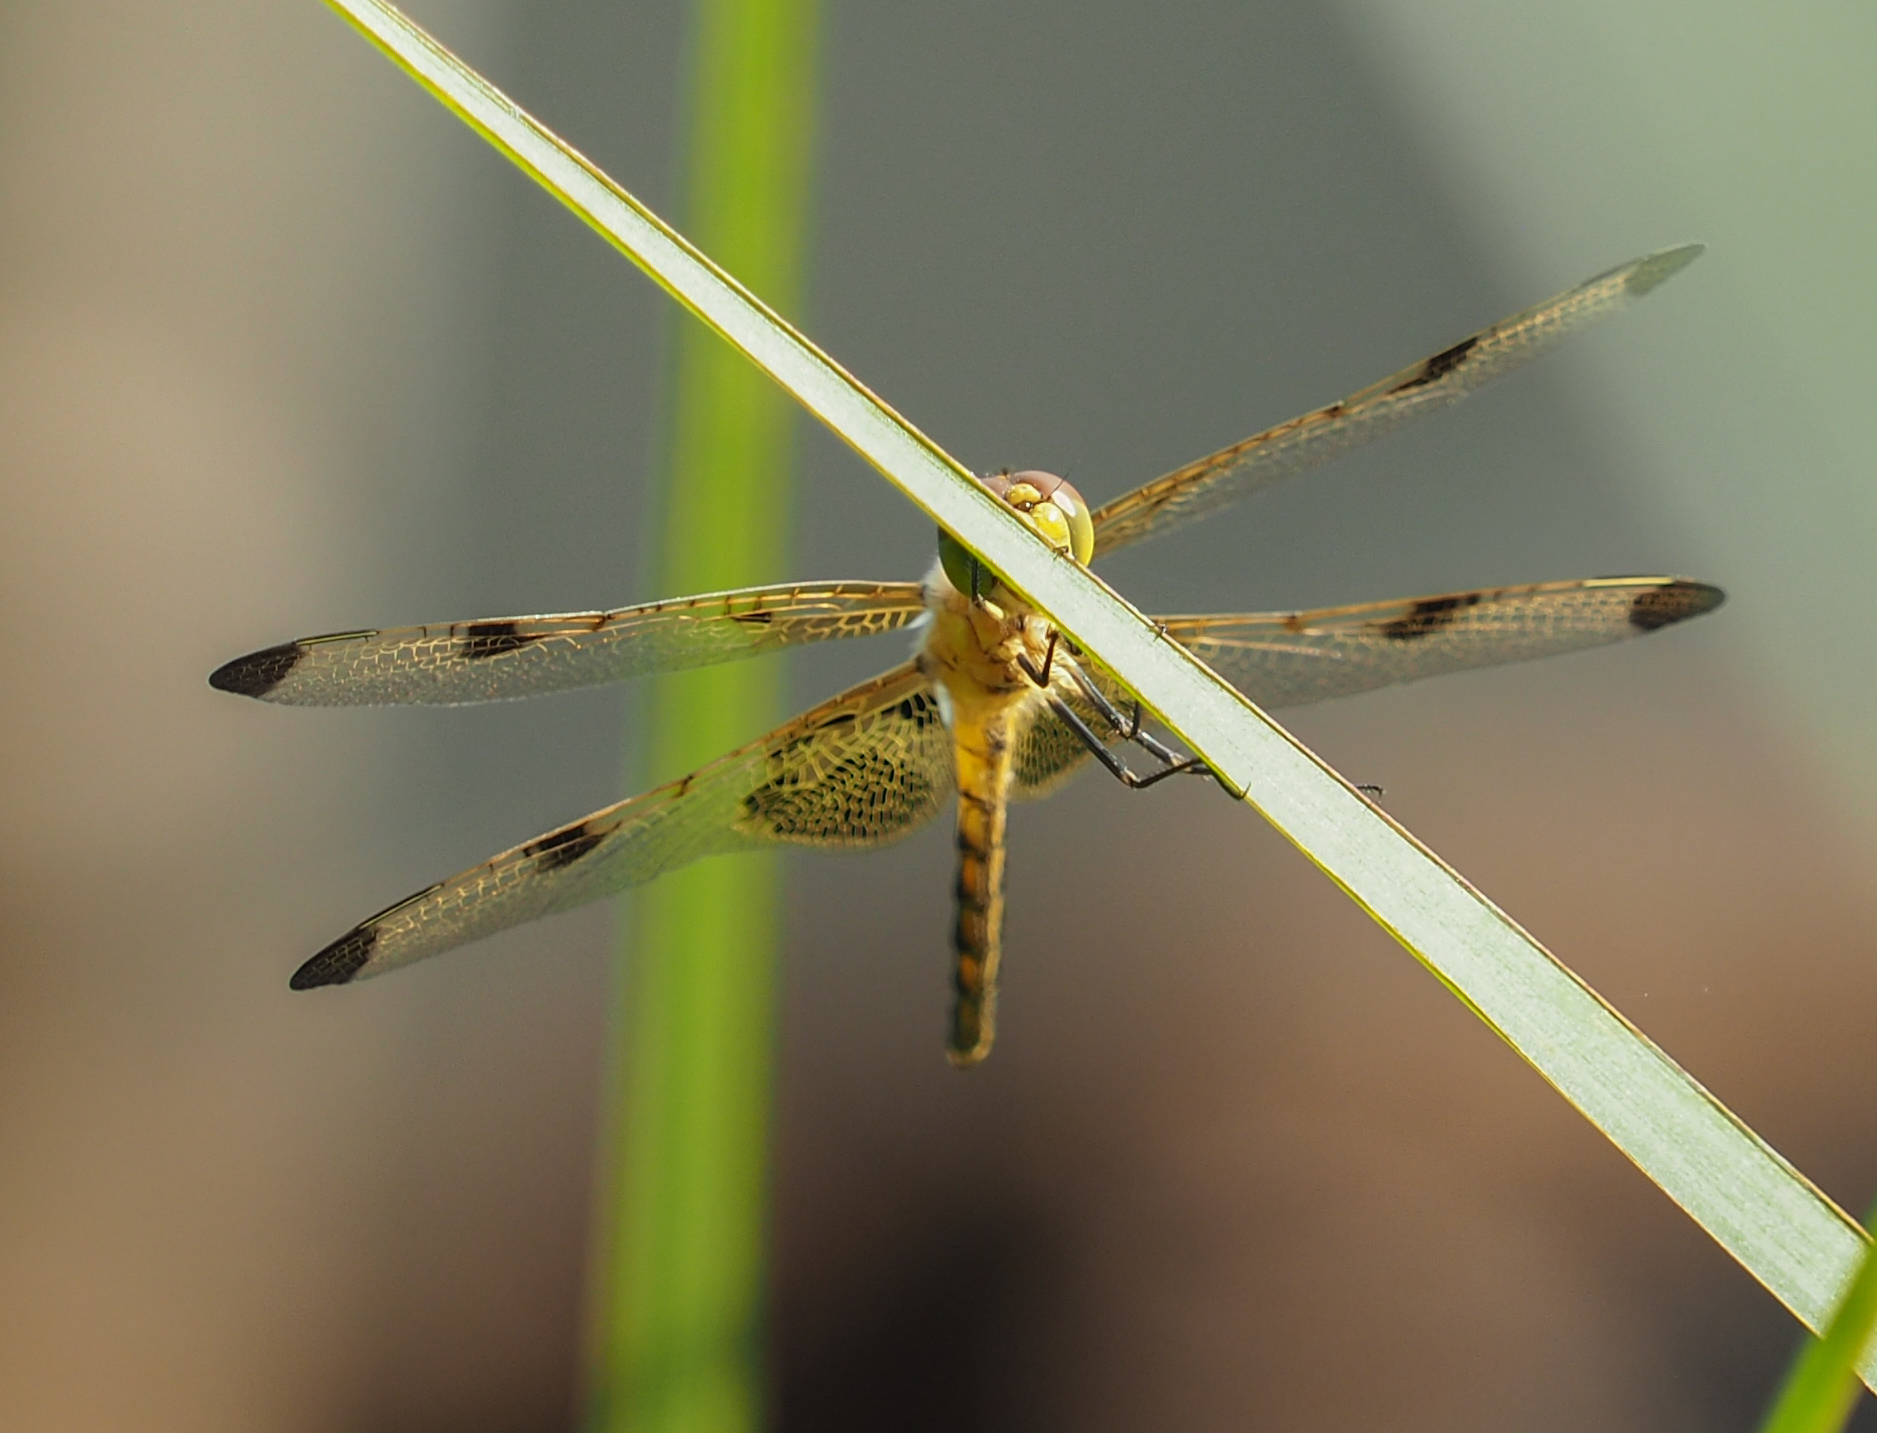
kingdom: Animalia
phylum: Arthropoda
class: Insecta
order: Odonata
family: Libellulidae
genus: Celithemis
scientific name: Celithemis elisa
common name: Calico pennant
